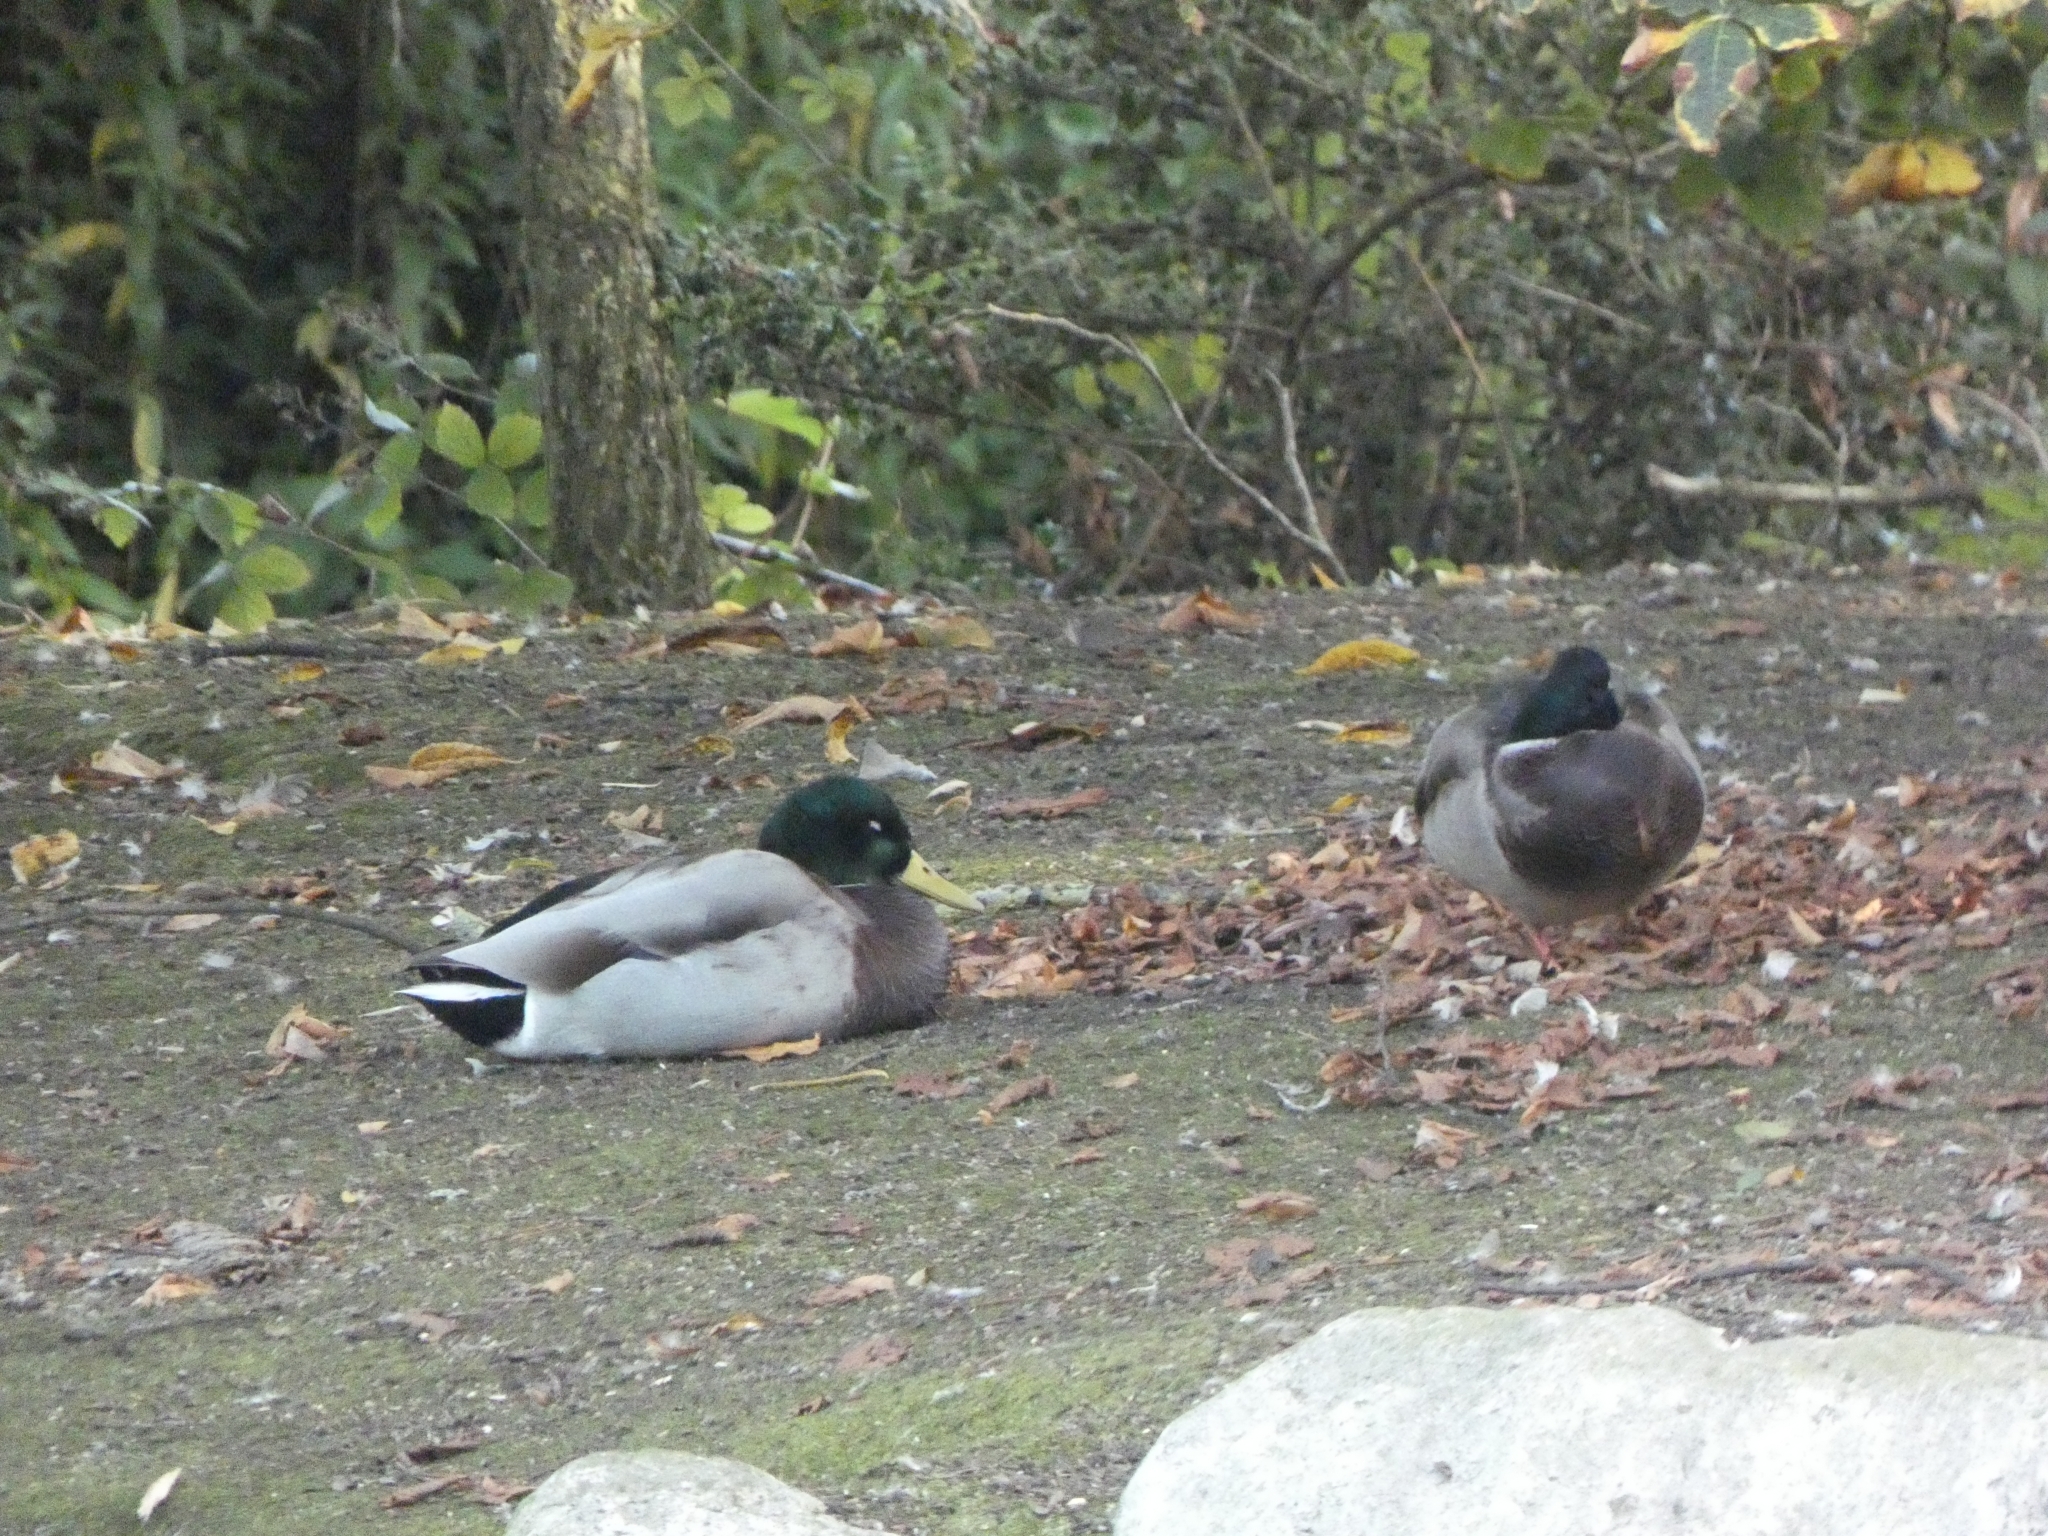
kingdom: Animalia
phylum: Chordata
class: Aves
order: Anseriformes
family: Anatidae
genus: Anas
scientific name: Anas platyrhynchos
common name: Mallard
